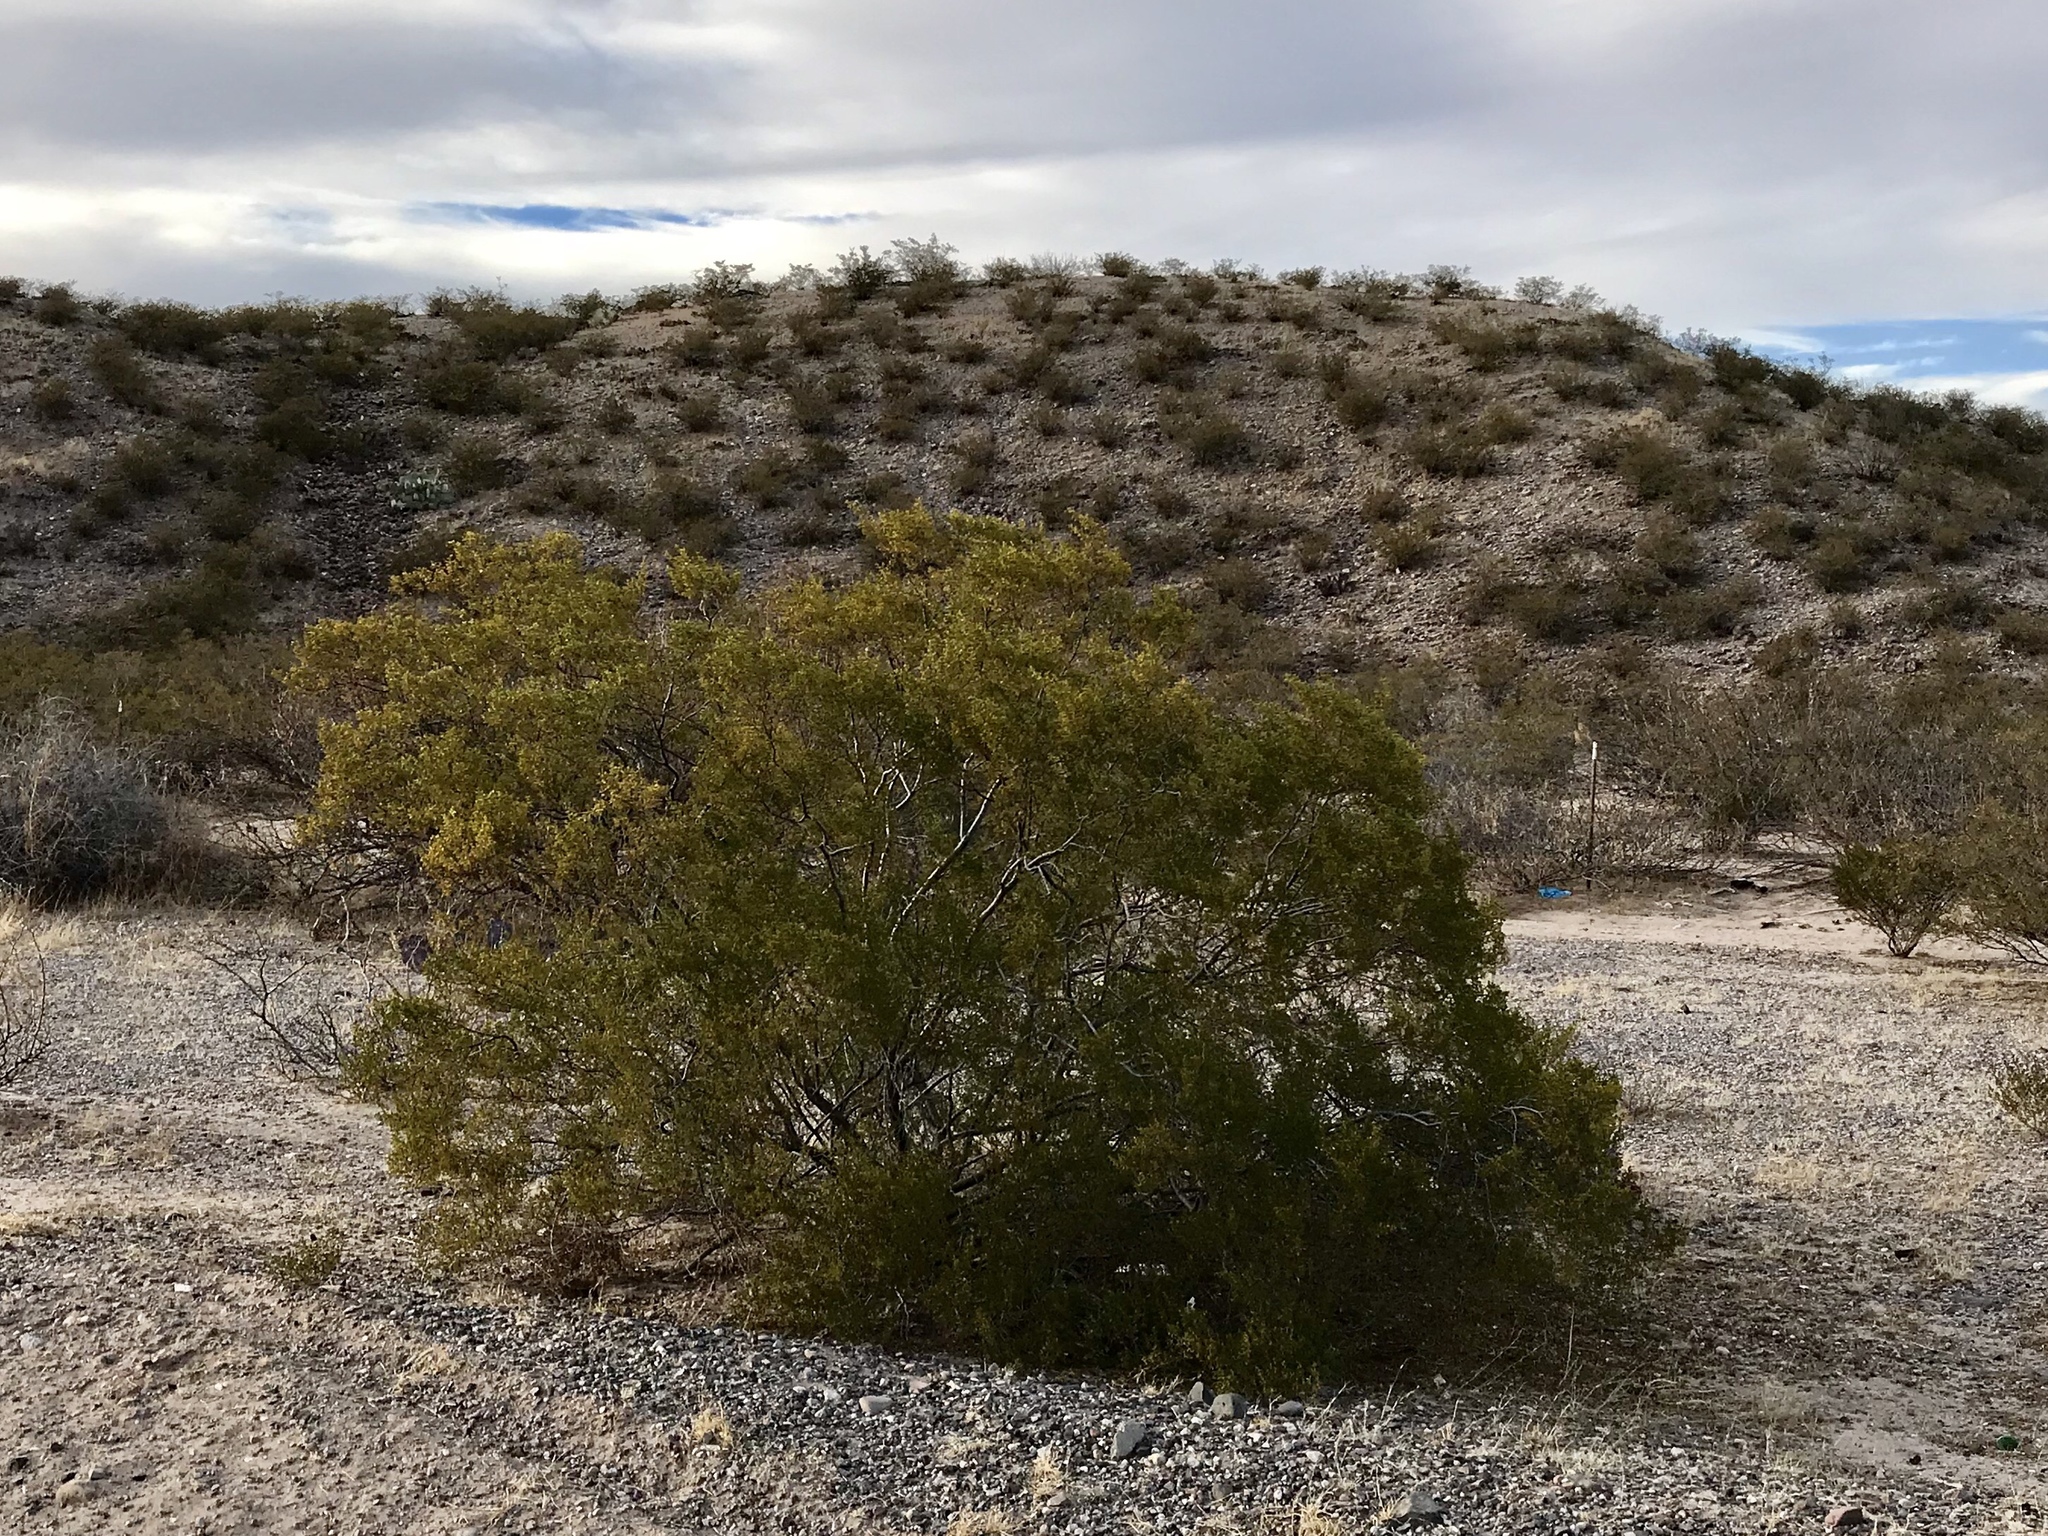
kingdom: Plantae
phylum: Tracheophyta
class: Magnoliopsida
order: Zygophyllales
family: Zygophyllaceae
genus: Larrea
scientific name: Larrea tridentata
